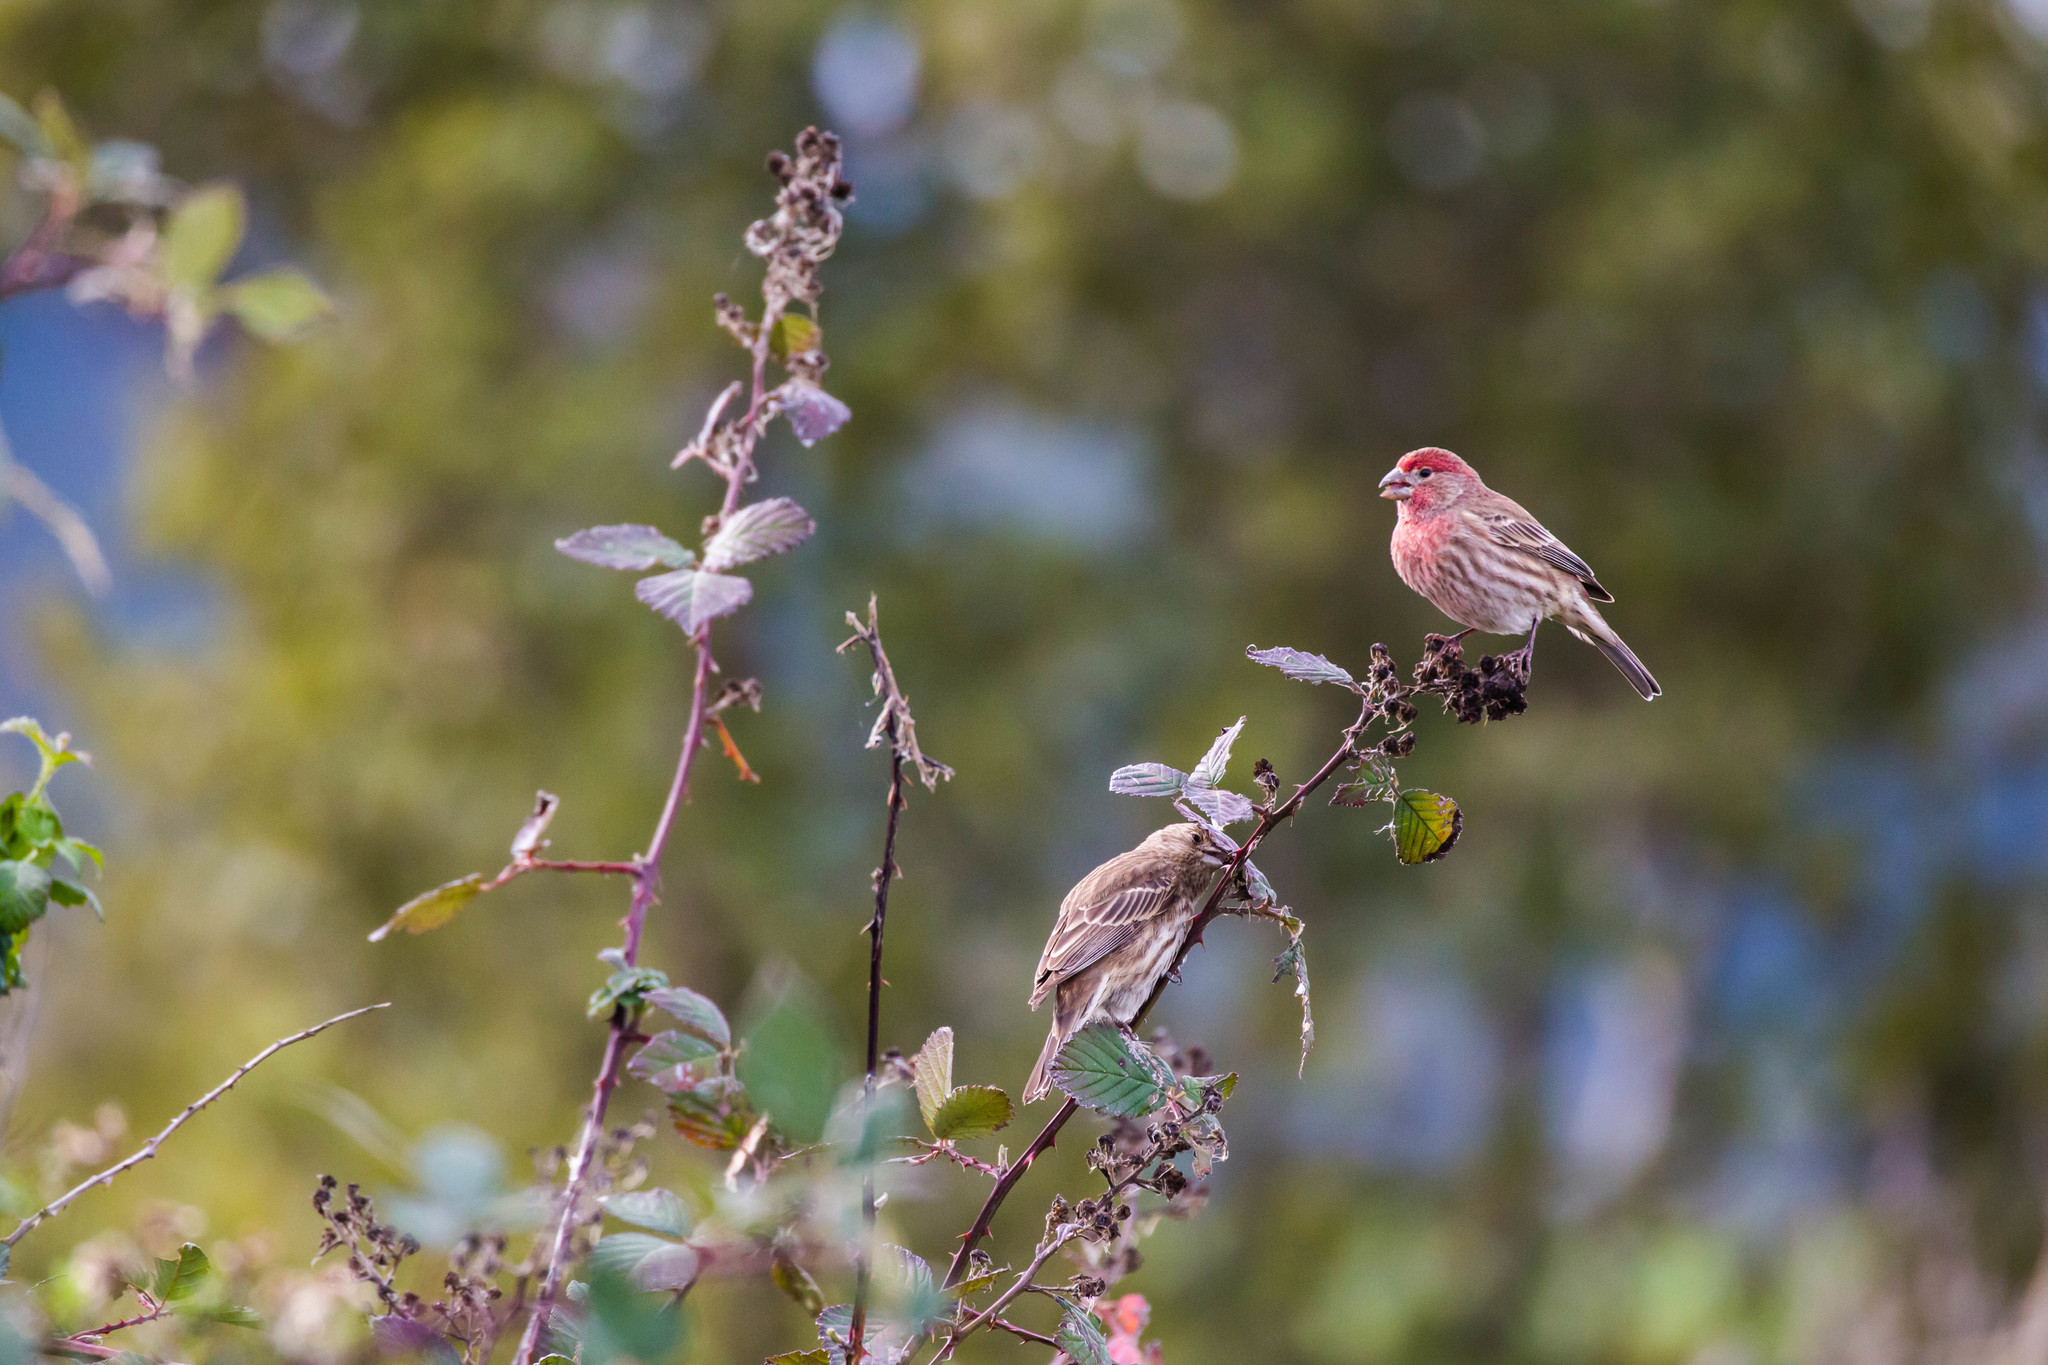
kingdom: Animalia
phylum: Chordata
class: Aves
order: Passeriformes
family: Fringillidae
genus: Haemorhous
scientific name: Haemorhous mexicanus
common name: House finch
